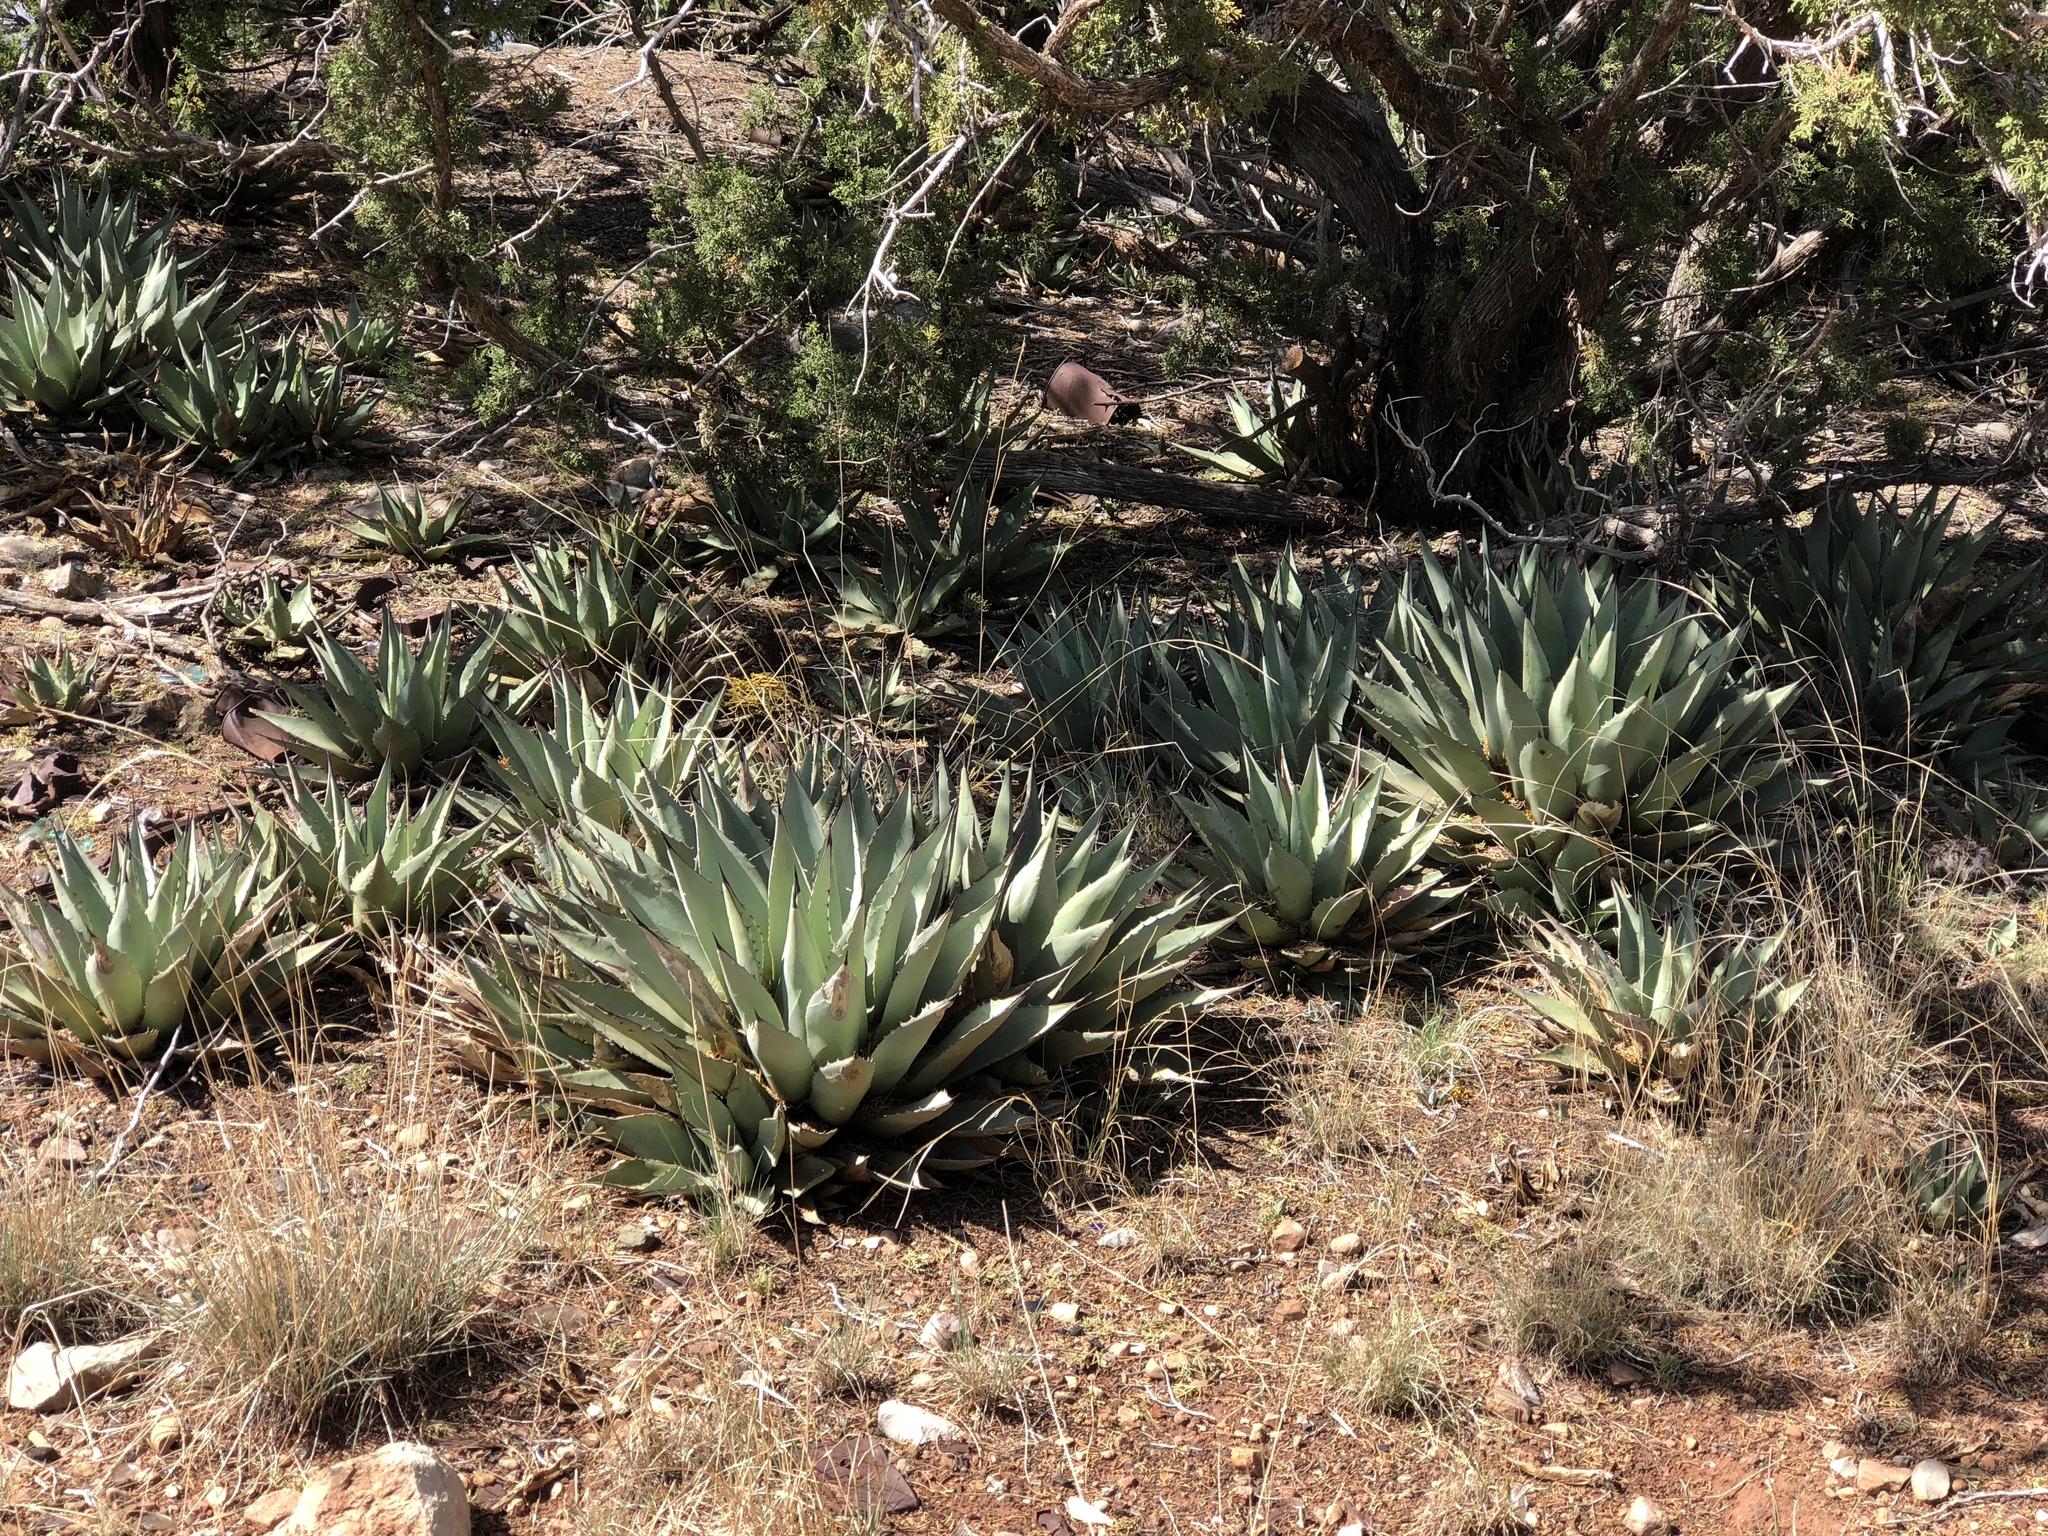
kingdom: Plantae
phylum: Tracheophyta
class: Liliopsida
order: Asparagales
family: Asparagaceae
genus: Agave
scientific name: Agave parryi
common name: Parry's agave
